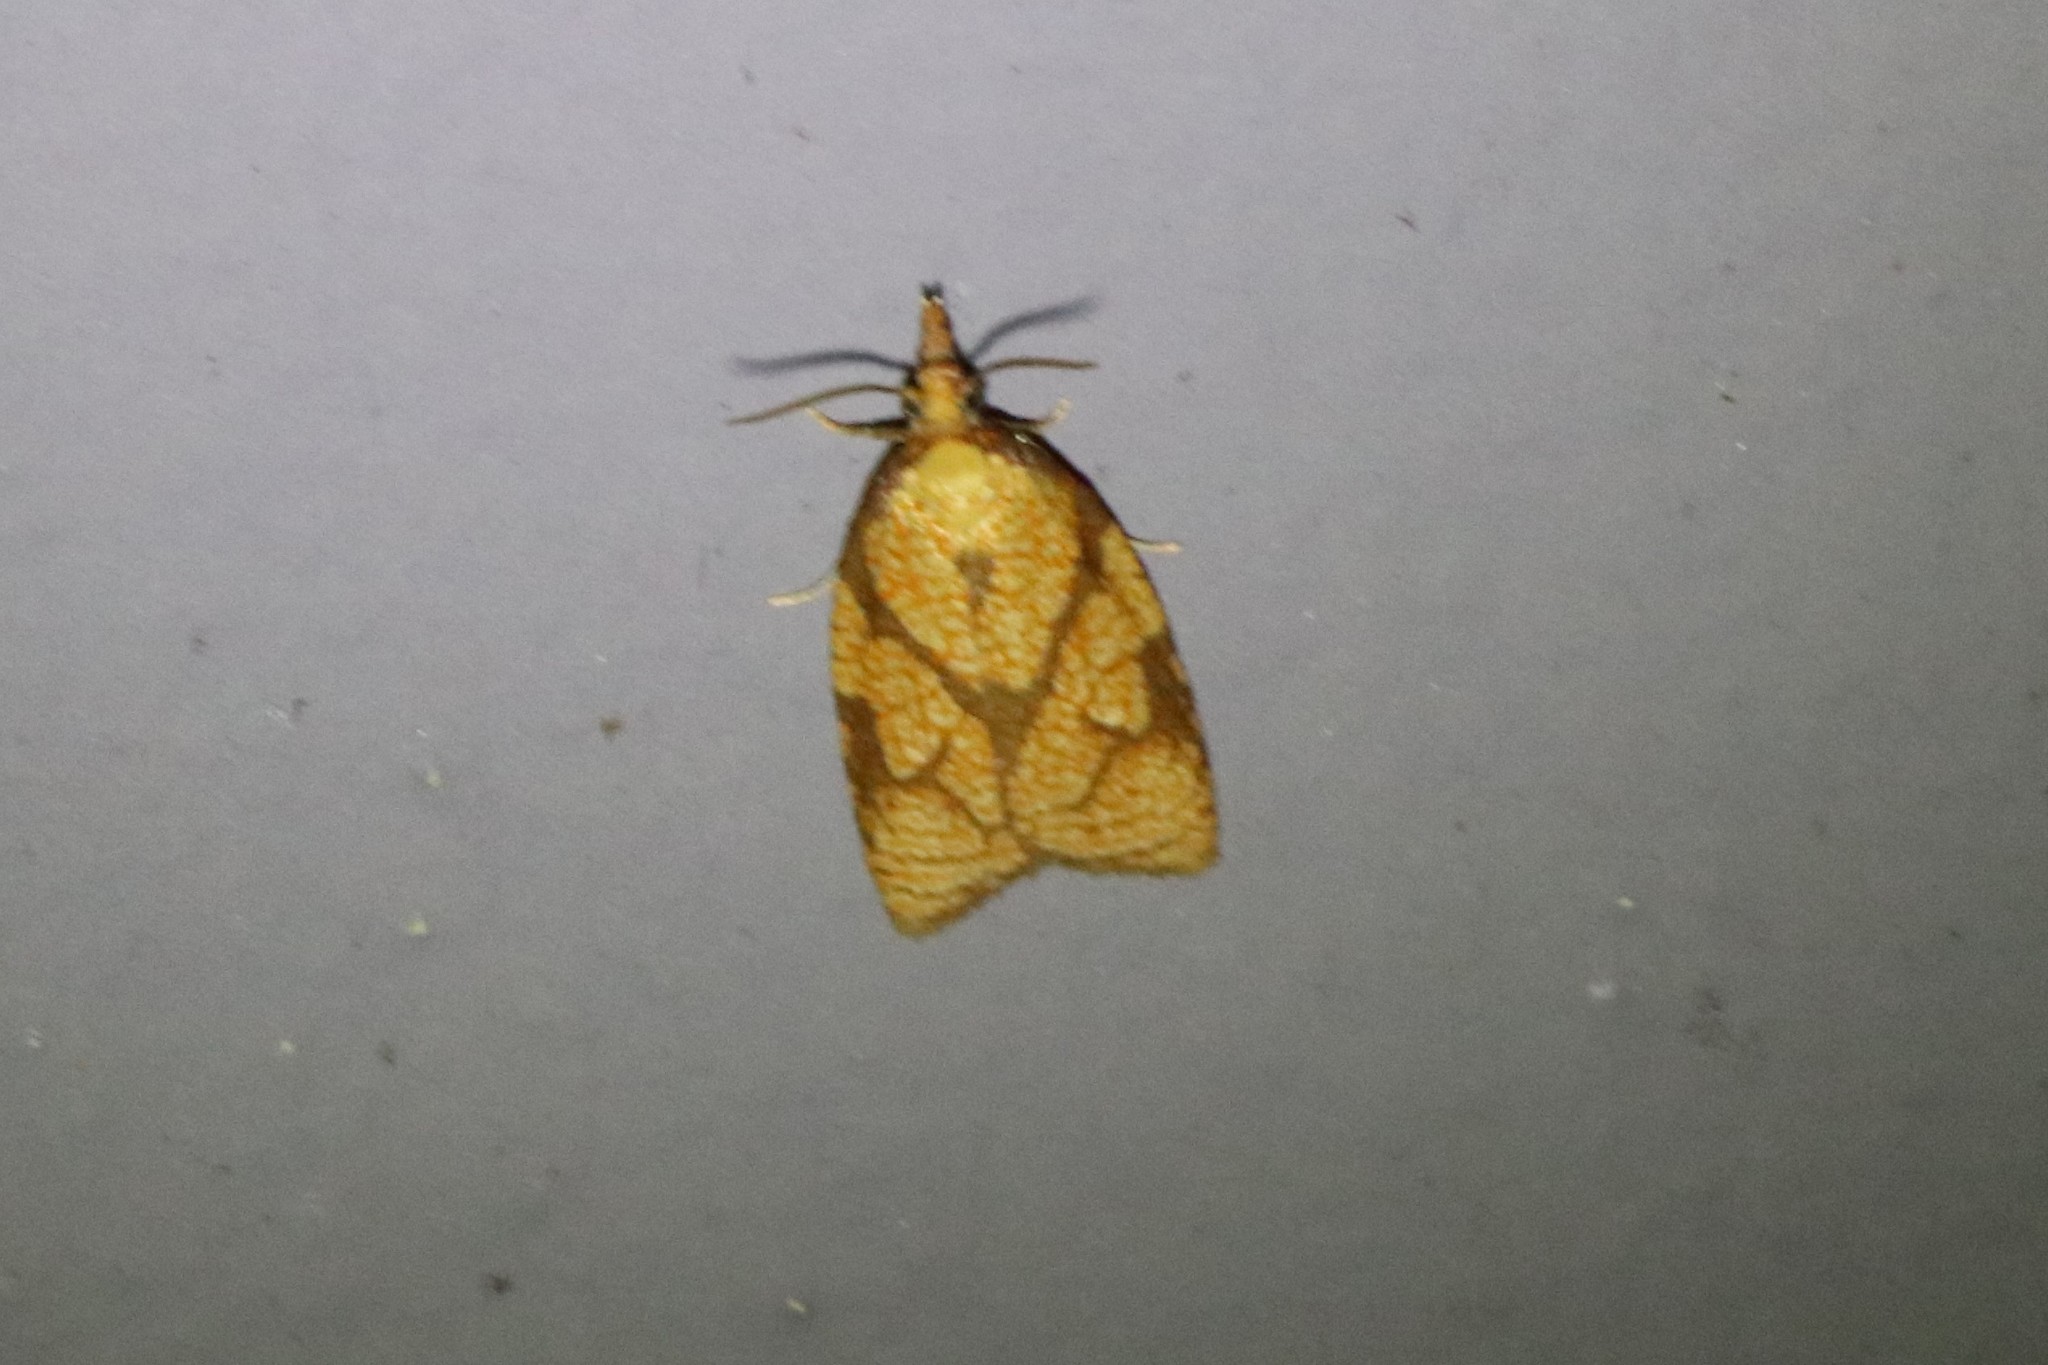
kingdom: Animalia
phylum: Arthropoda
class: Insecta
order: Lepidoptera
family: Tortricidae
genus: Cenopis
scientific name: Cenopis reticulatana
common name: Reticulated fruitworm moth
